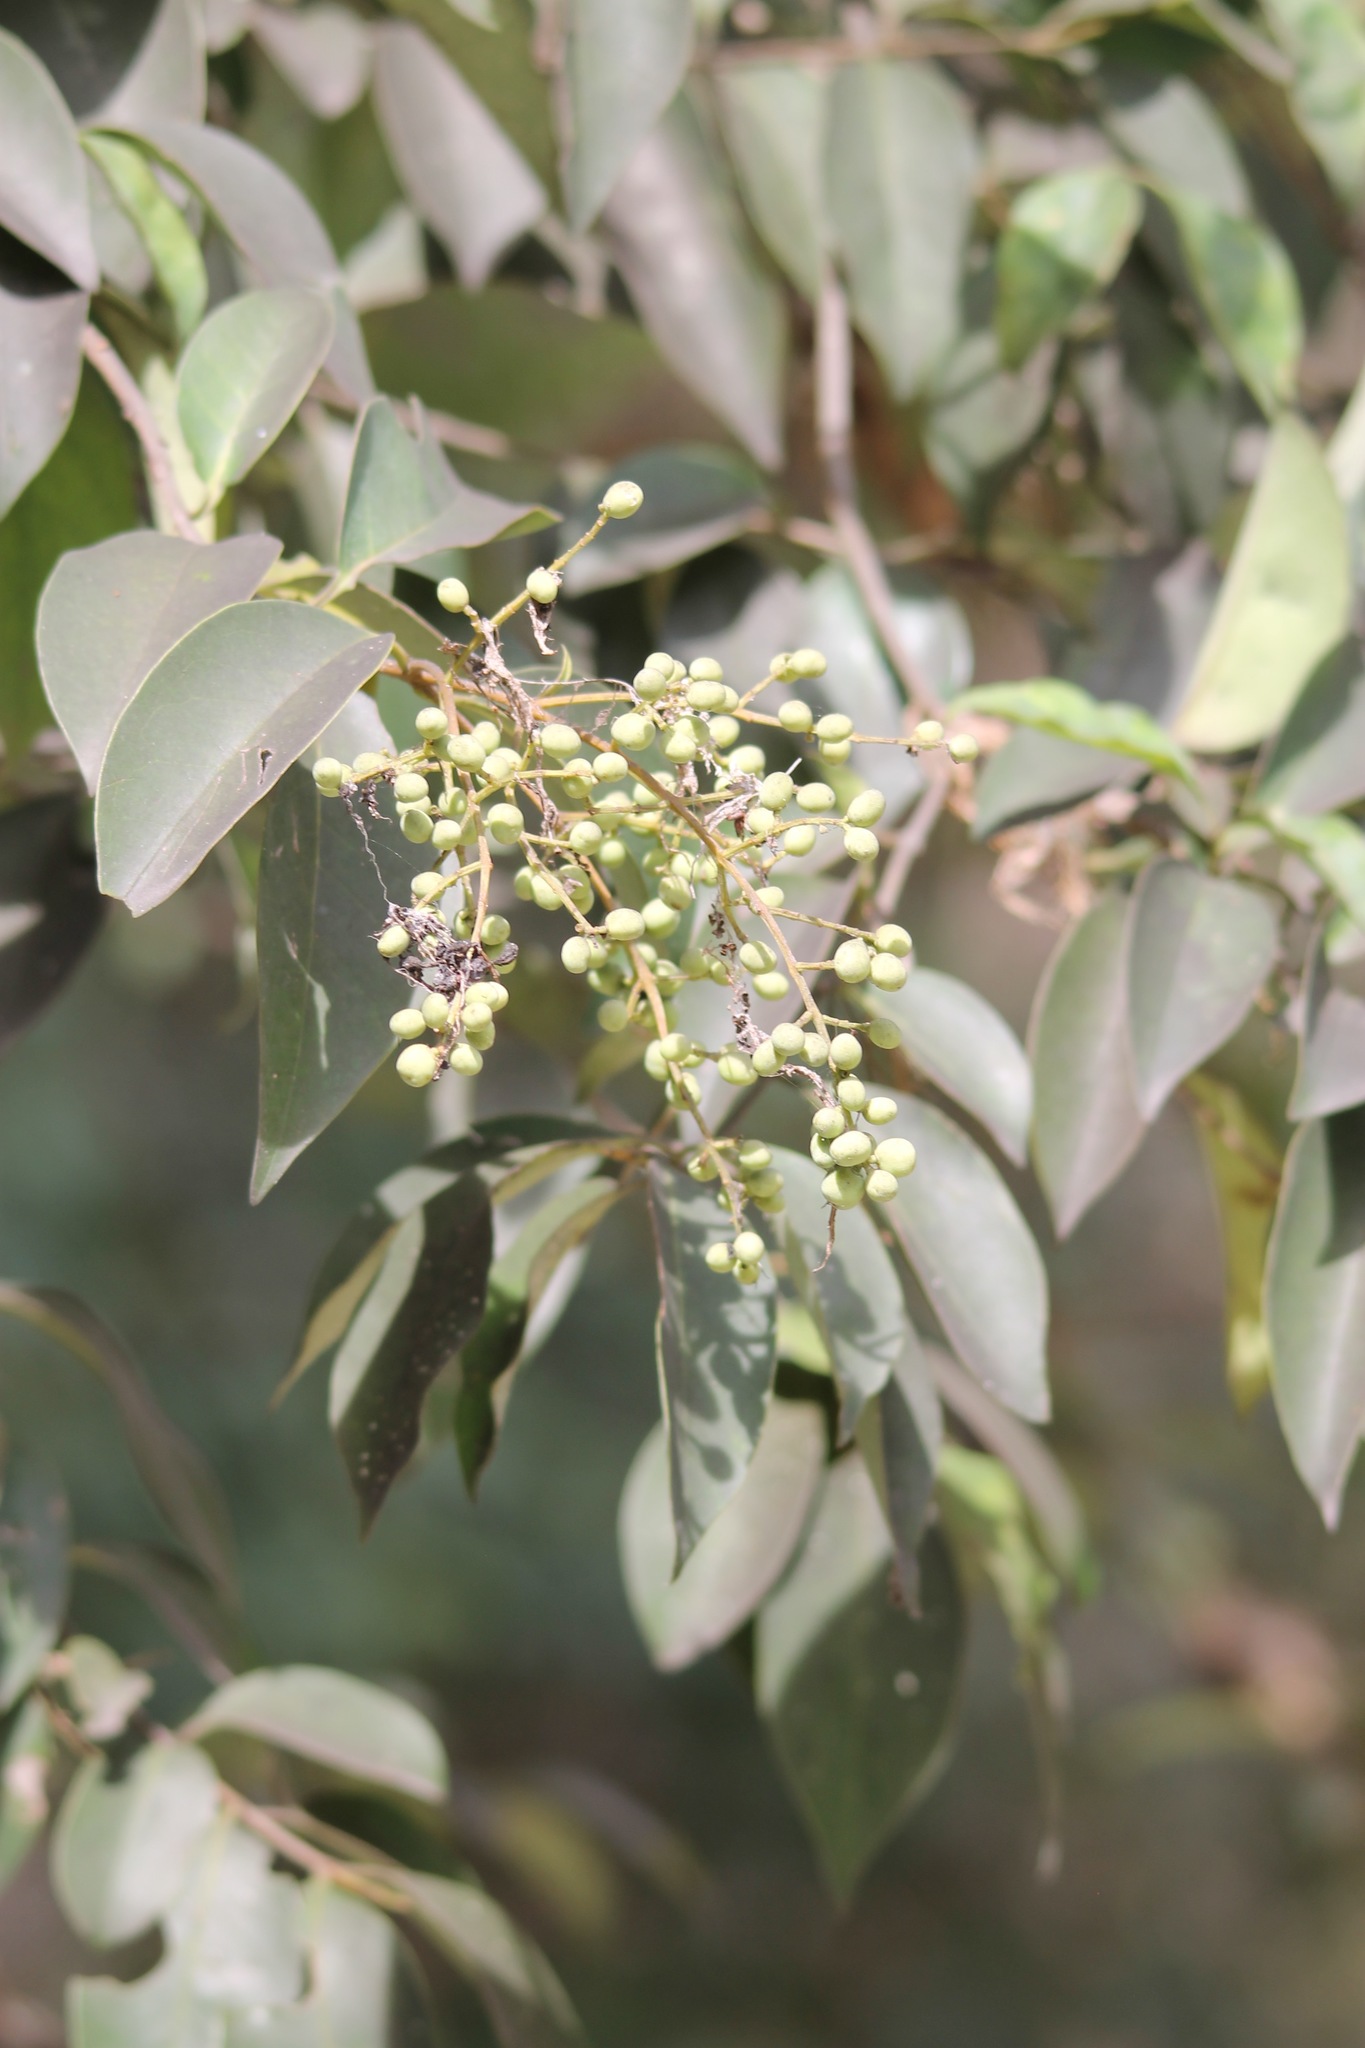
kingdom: Plantae
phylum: Tracheophyta
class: Magnoliopsida
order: Lamiales
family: Oleaceae
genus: Ligustrum
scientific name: Ligustrum lucidum
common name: Glossy privet
